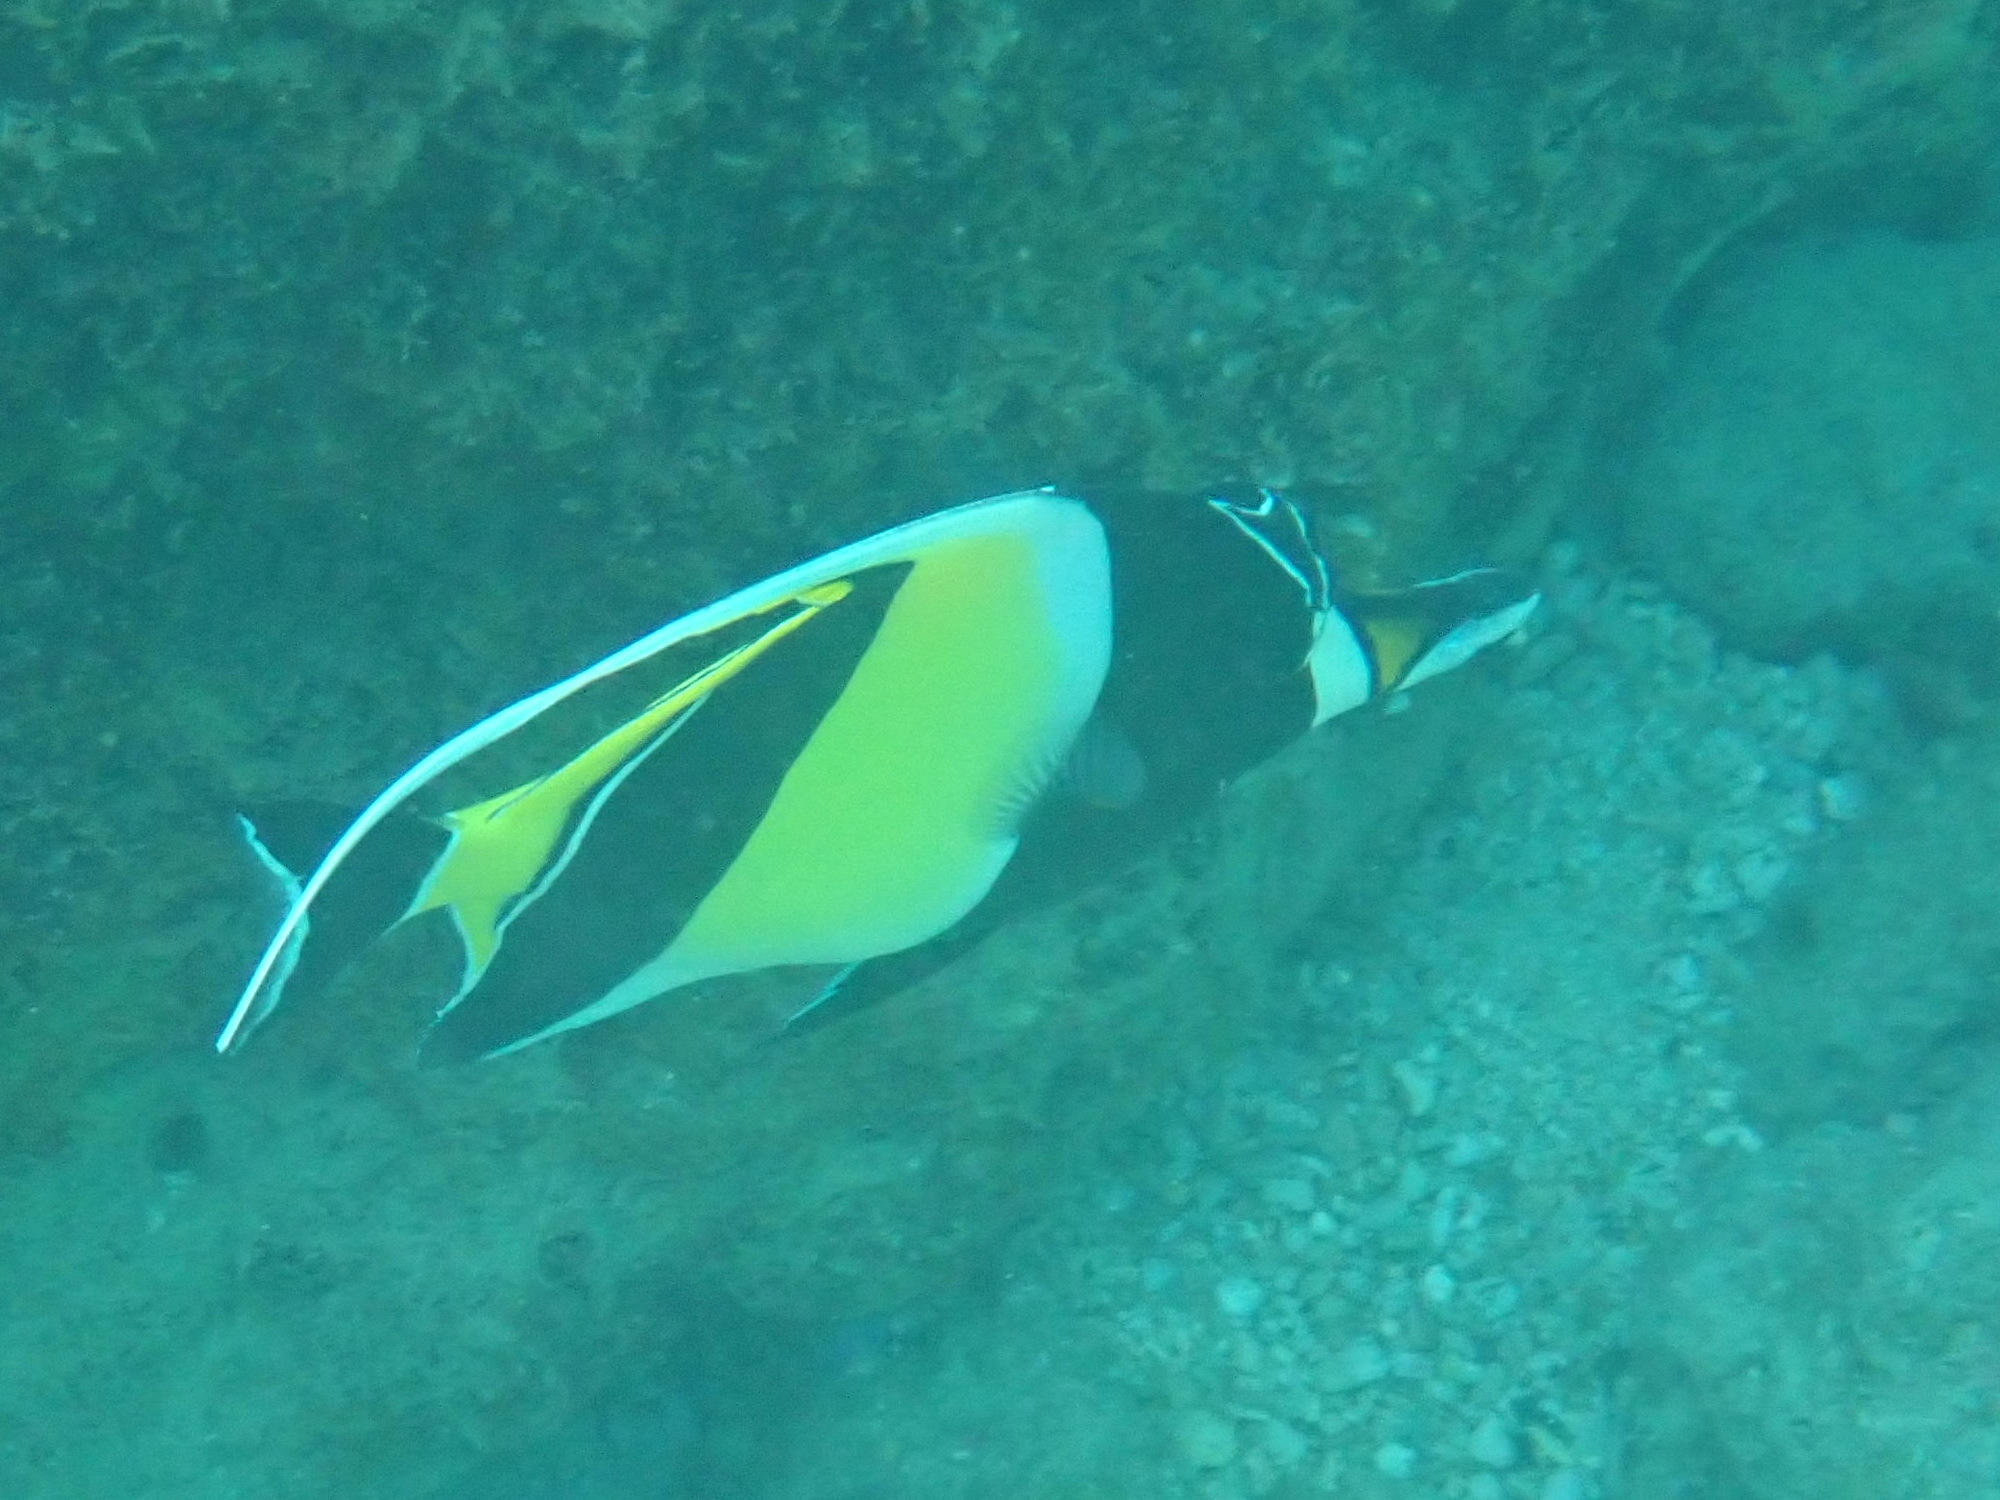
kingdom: Animalia
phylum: Chordata
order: Perciformes
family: Zanclidae
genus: Zanclus
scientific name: Zanclus cornutus
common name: Moorish idol
